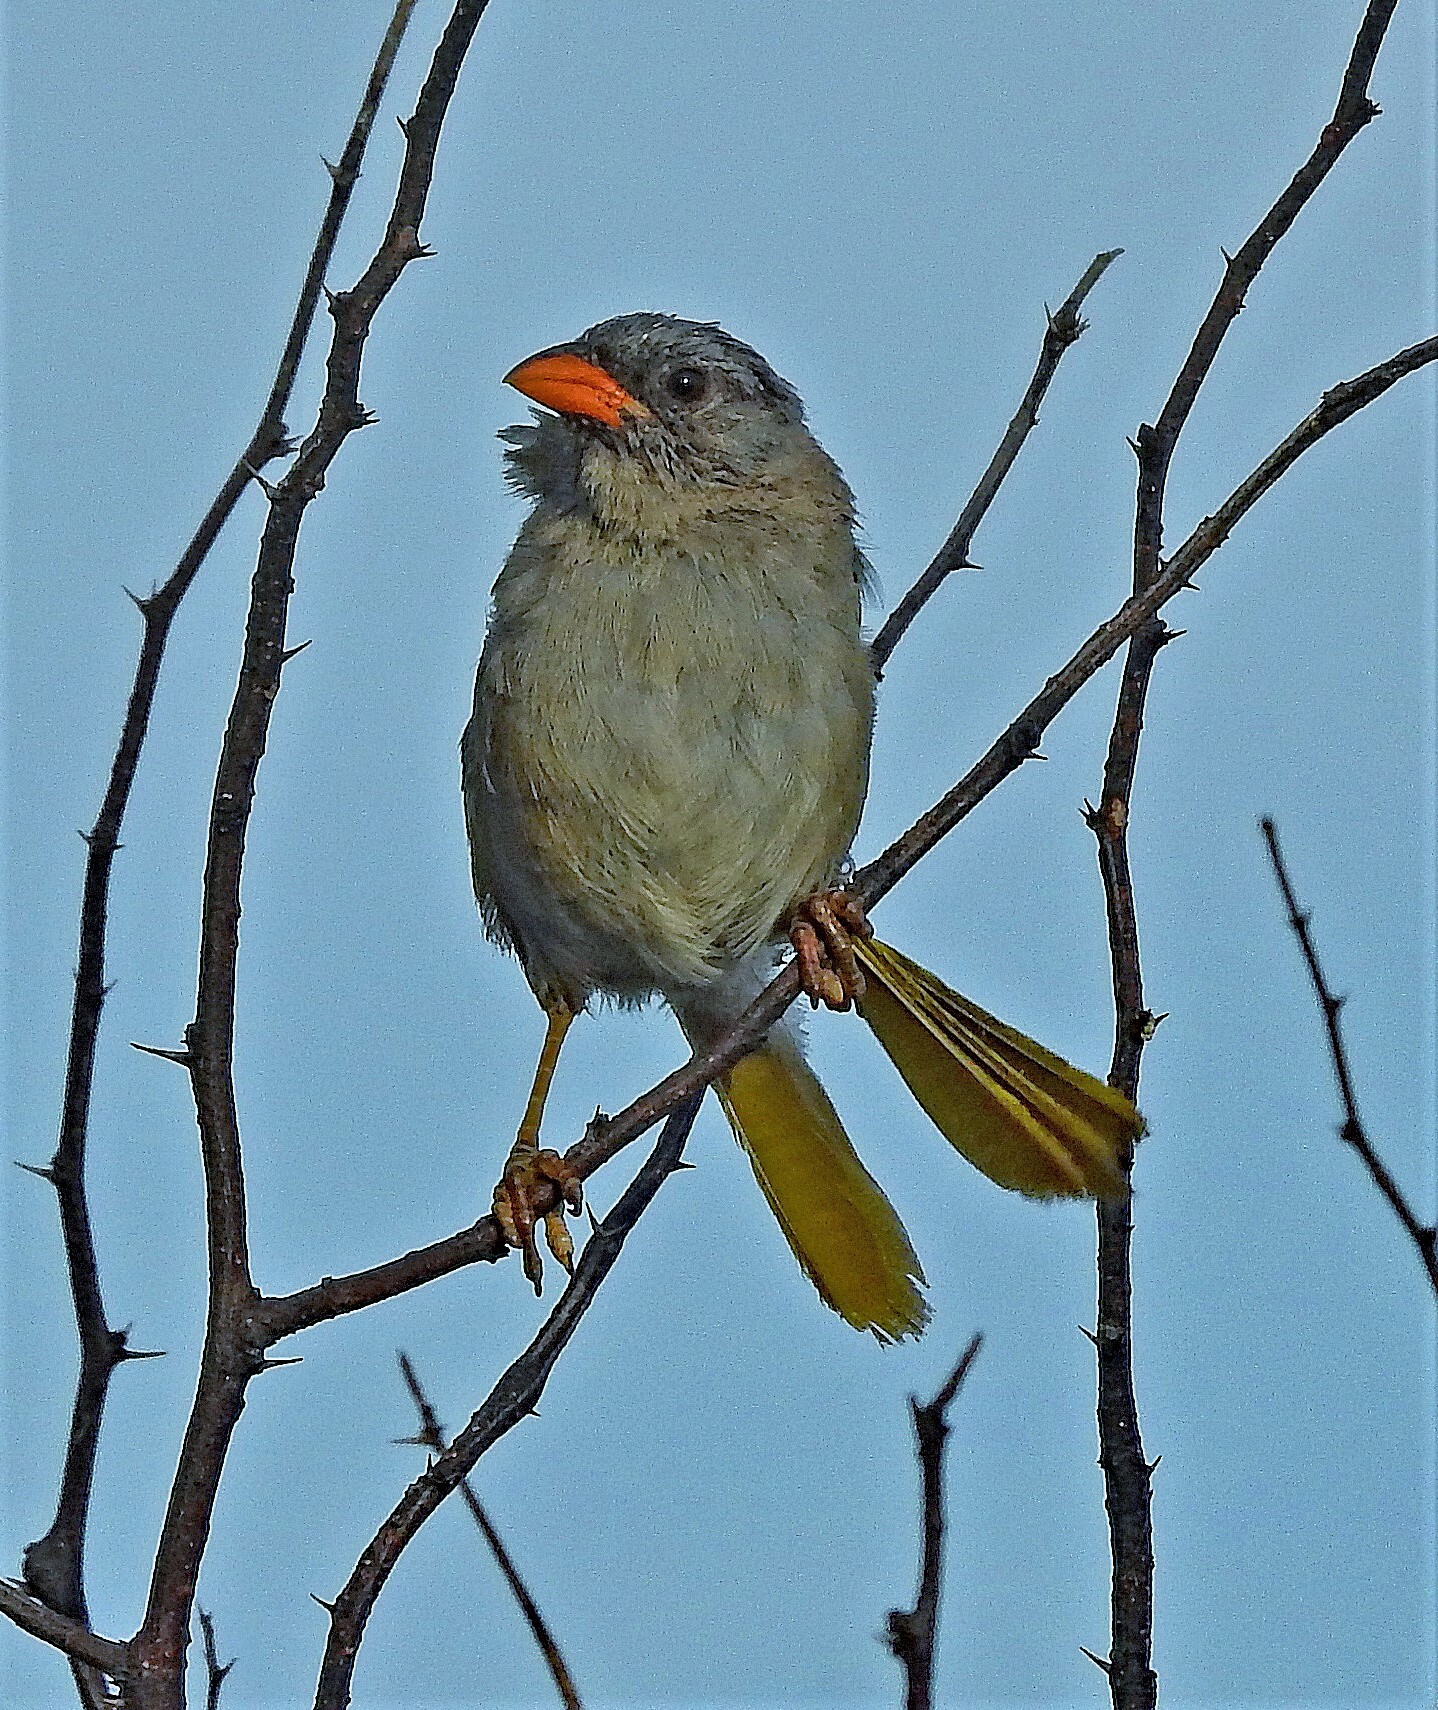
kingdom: Animalia
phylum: Chordata
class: Aves
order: Passeriformes
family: Thraupidae
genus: Embernagra
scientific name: Embernagra platensis
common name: Pampa finch
